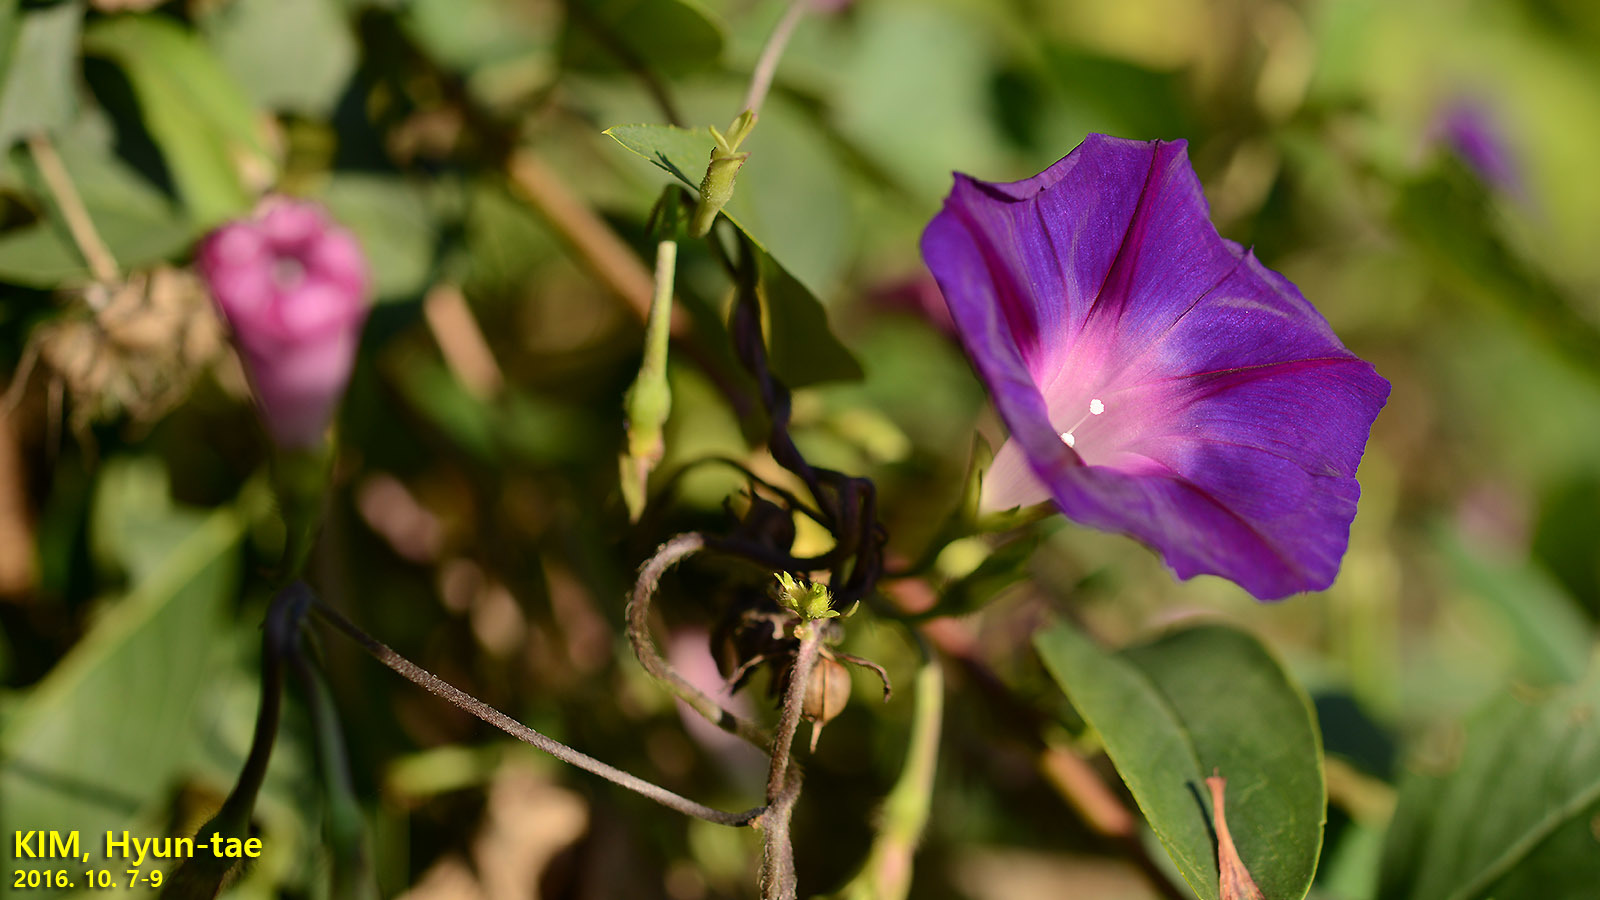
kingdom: Plantae
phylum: Tracheophyta
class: Magnoliopsida
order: Solanales
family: Convolvulaceae
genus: Ipomoea
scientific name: Ipomoea purpurea
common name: Common morning-glory
